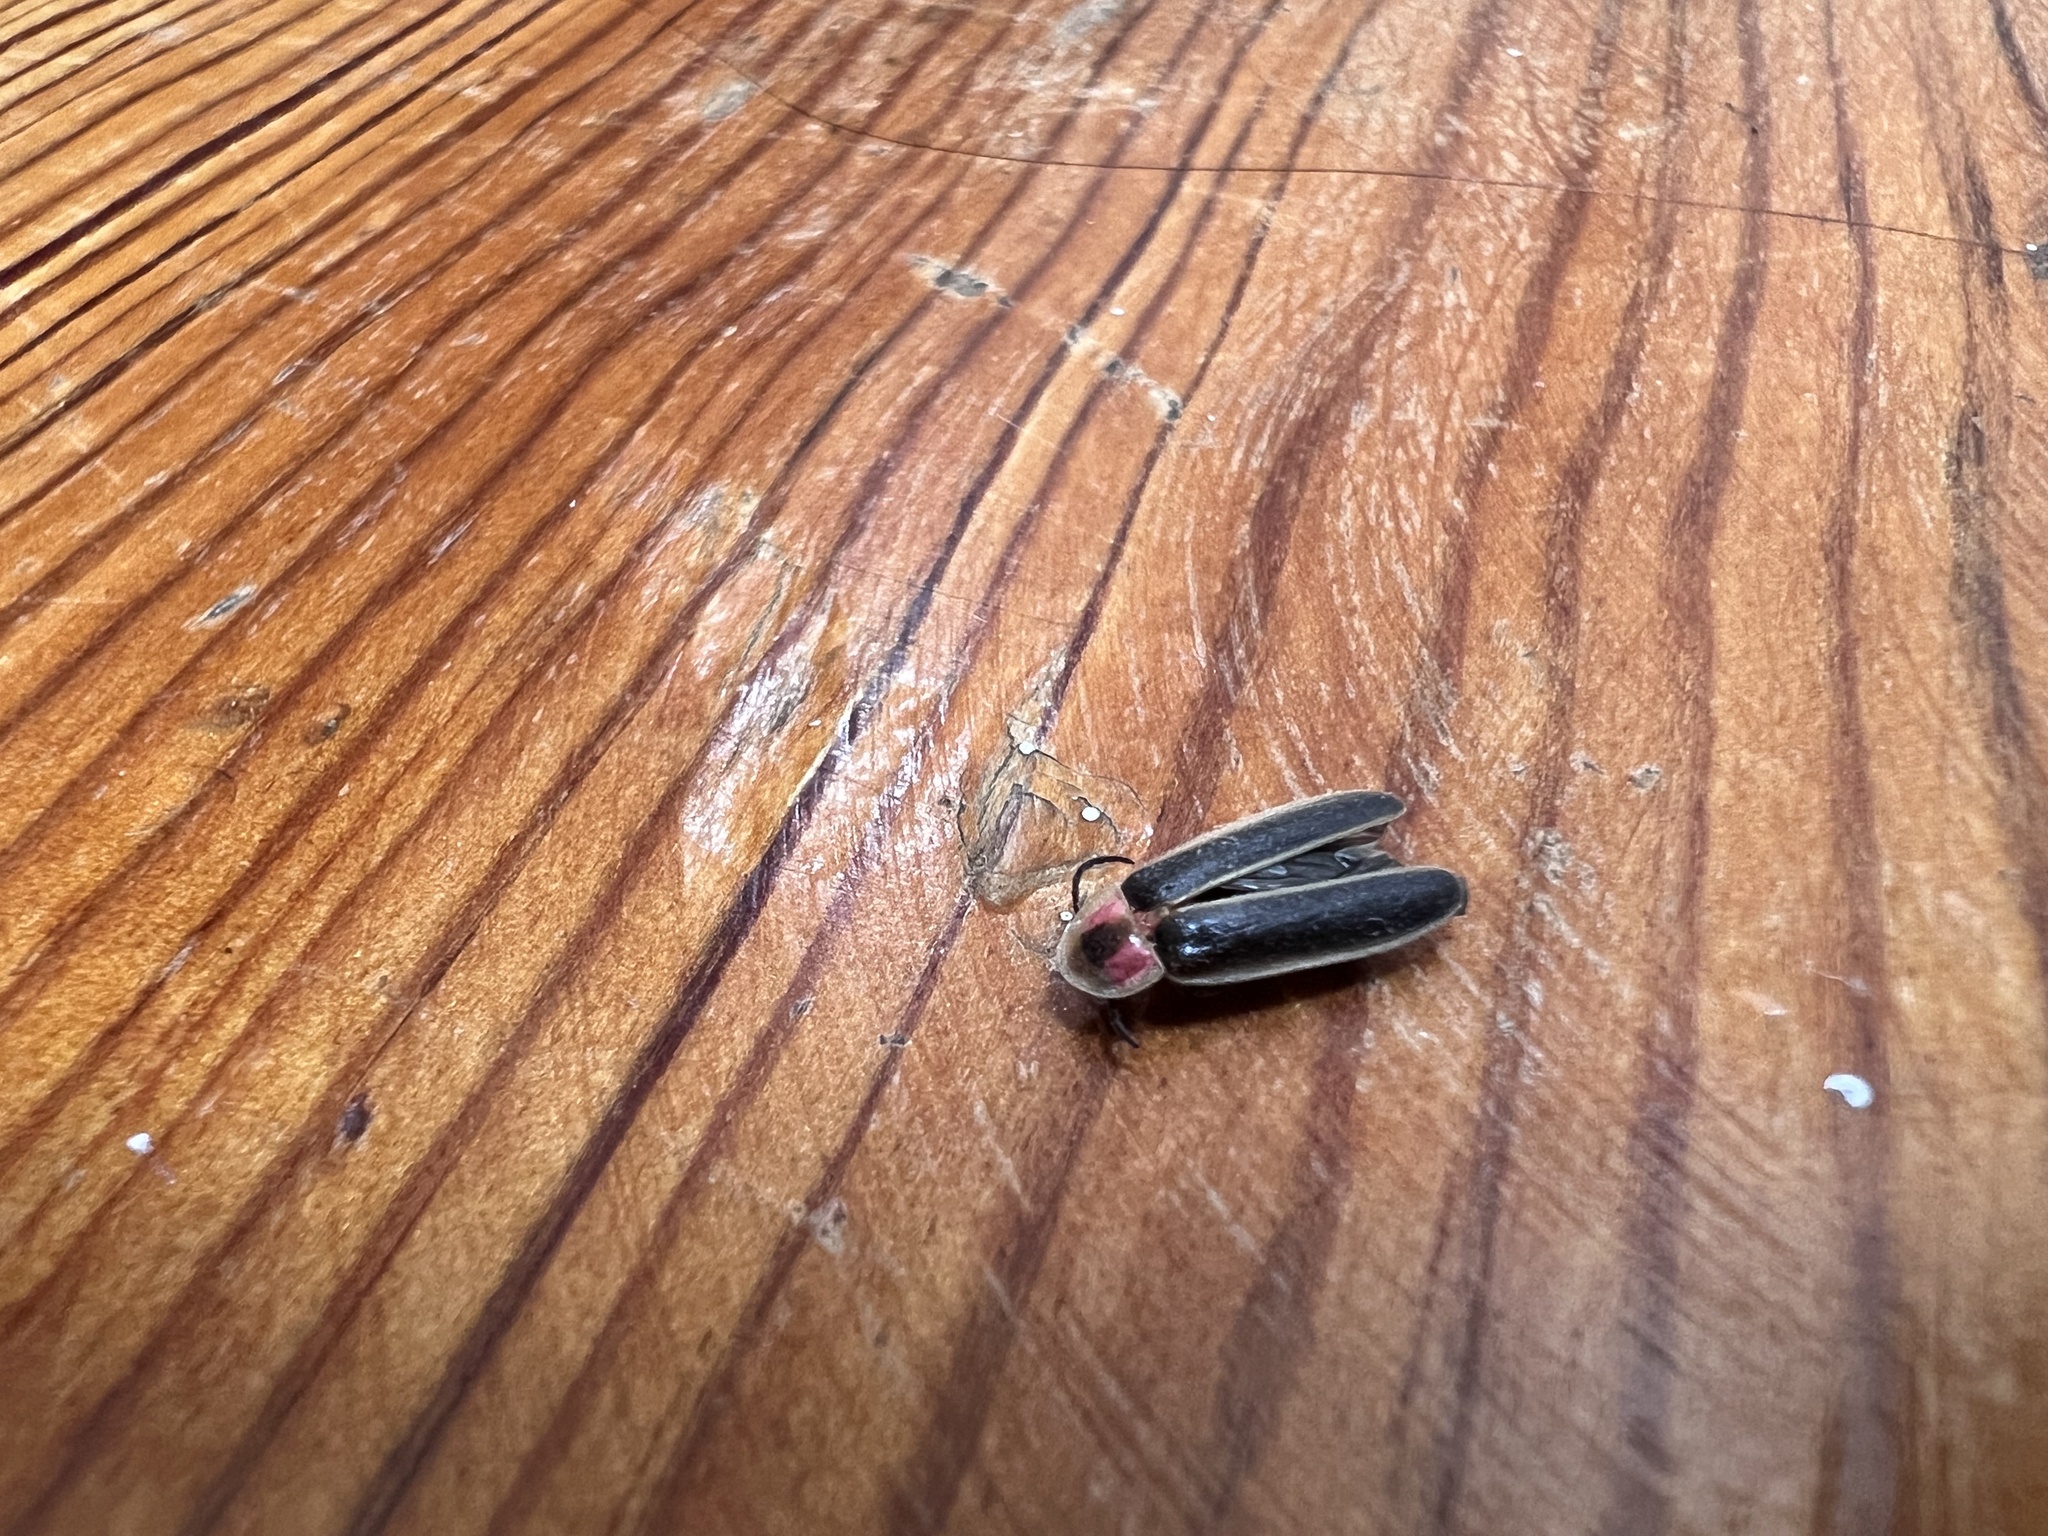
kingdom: Animalia
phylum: Arthropoda
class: Insecta
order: Coleoptera
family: Lampyridae
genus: Photinus
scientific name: Photinus pyralis
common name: Big dipper firefly
